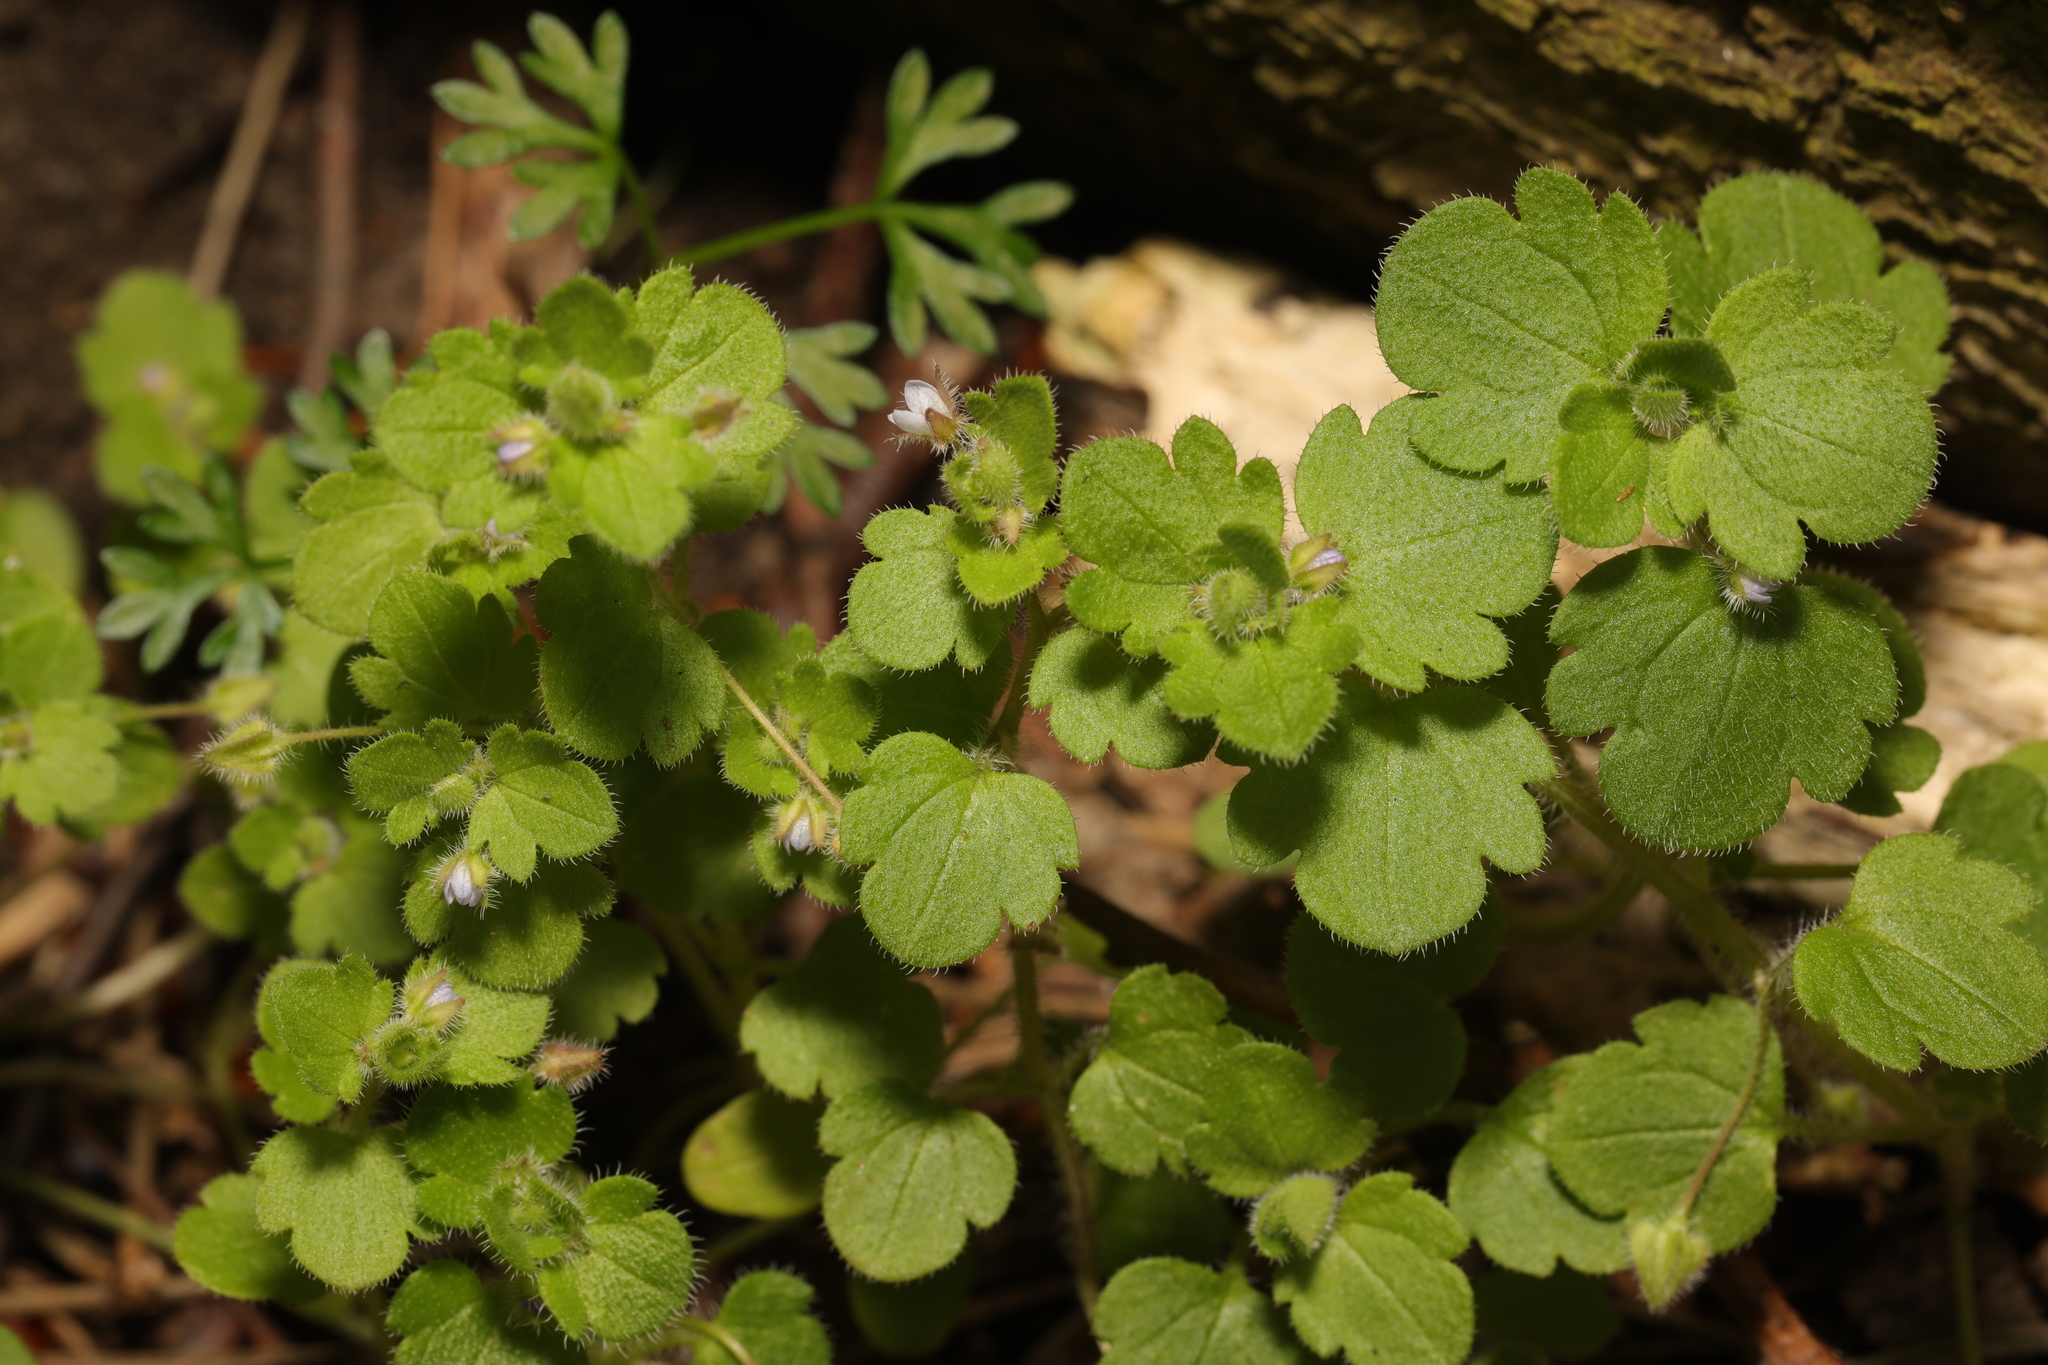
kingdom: Plantae
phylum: Tracheophyta
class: Magnoliopsida
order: Lamiales
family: Plantaginaceae
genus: Veronica
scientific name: Veronica hederifolia
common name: Ivy-leaved speedwell
